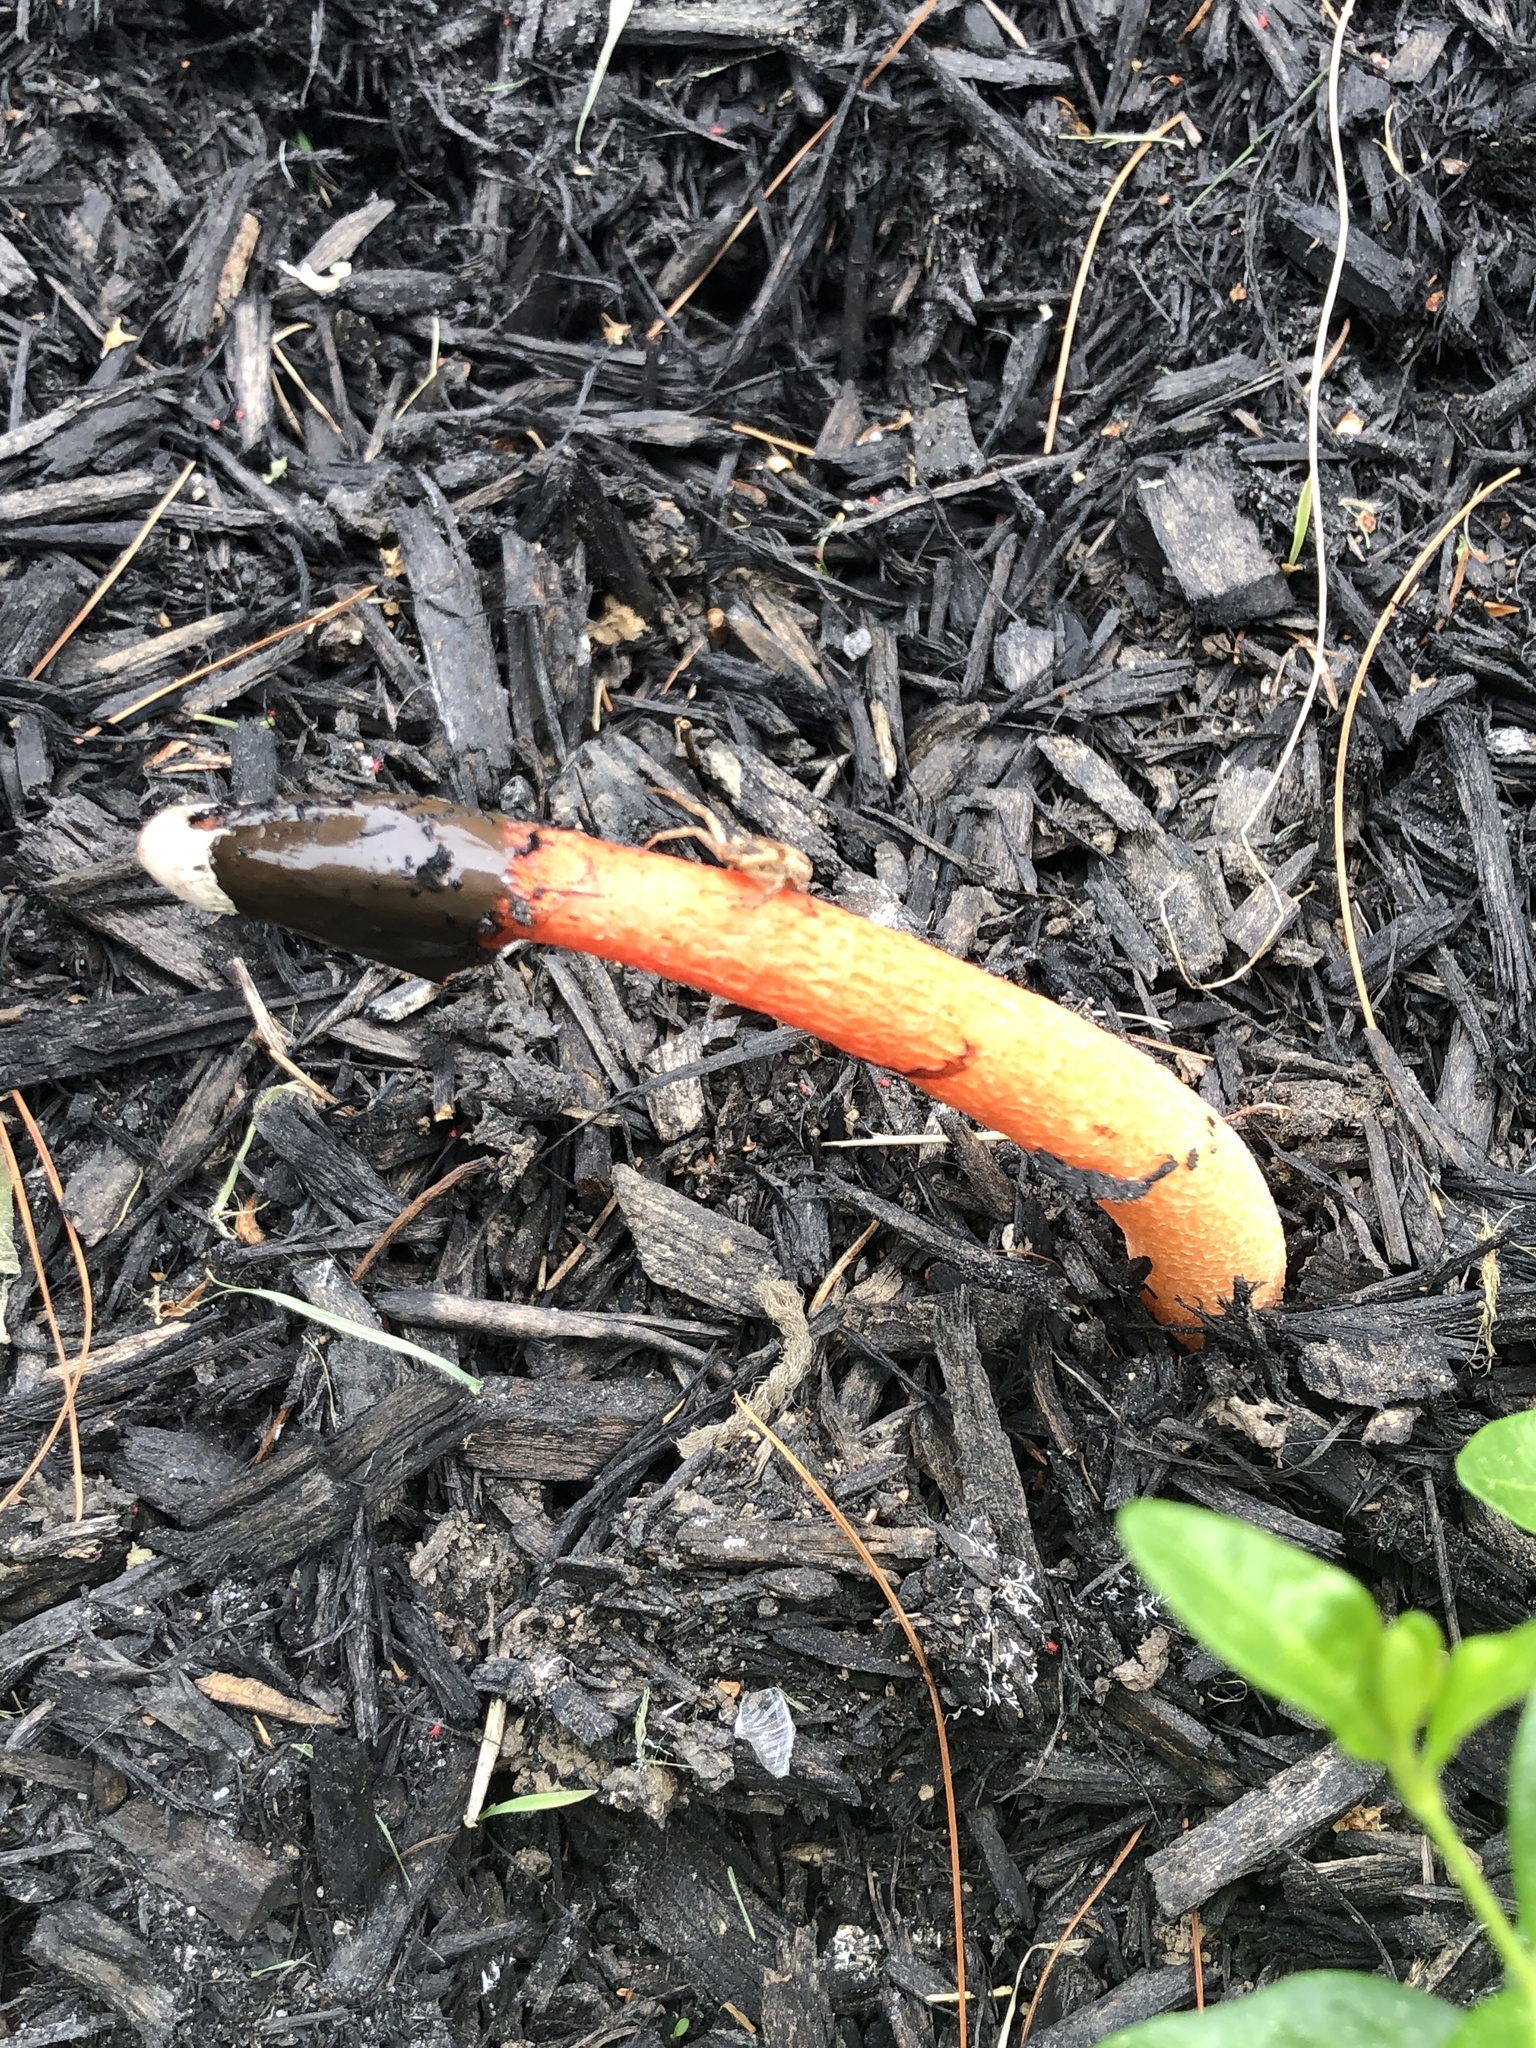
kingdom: Fungi
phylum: Basidiomycota
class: Agaricomycetes
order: Phallales
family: Phallaceae
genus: Phallus
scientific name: Phallus rugulosus
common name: Wrinkly stinkhorn
